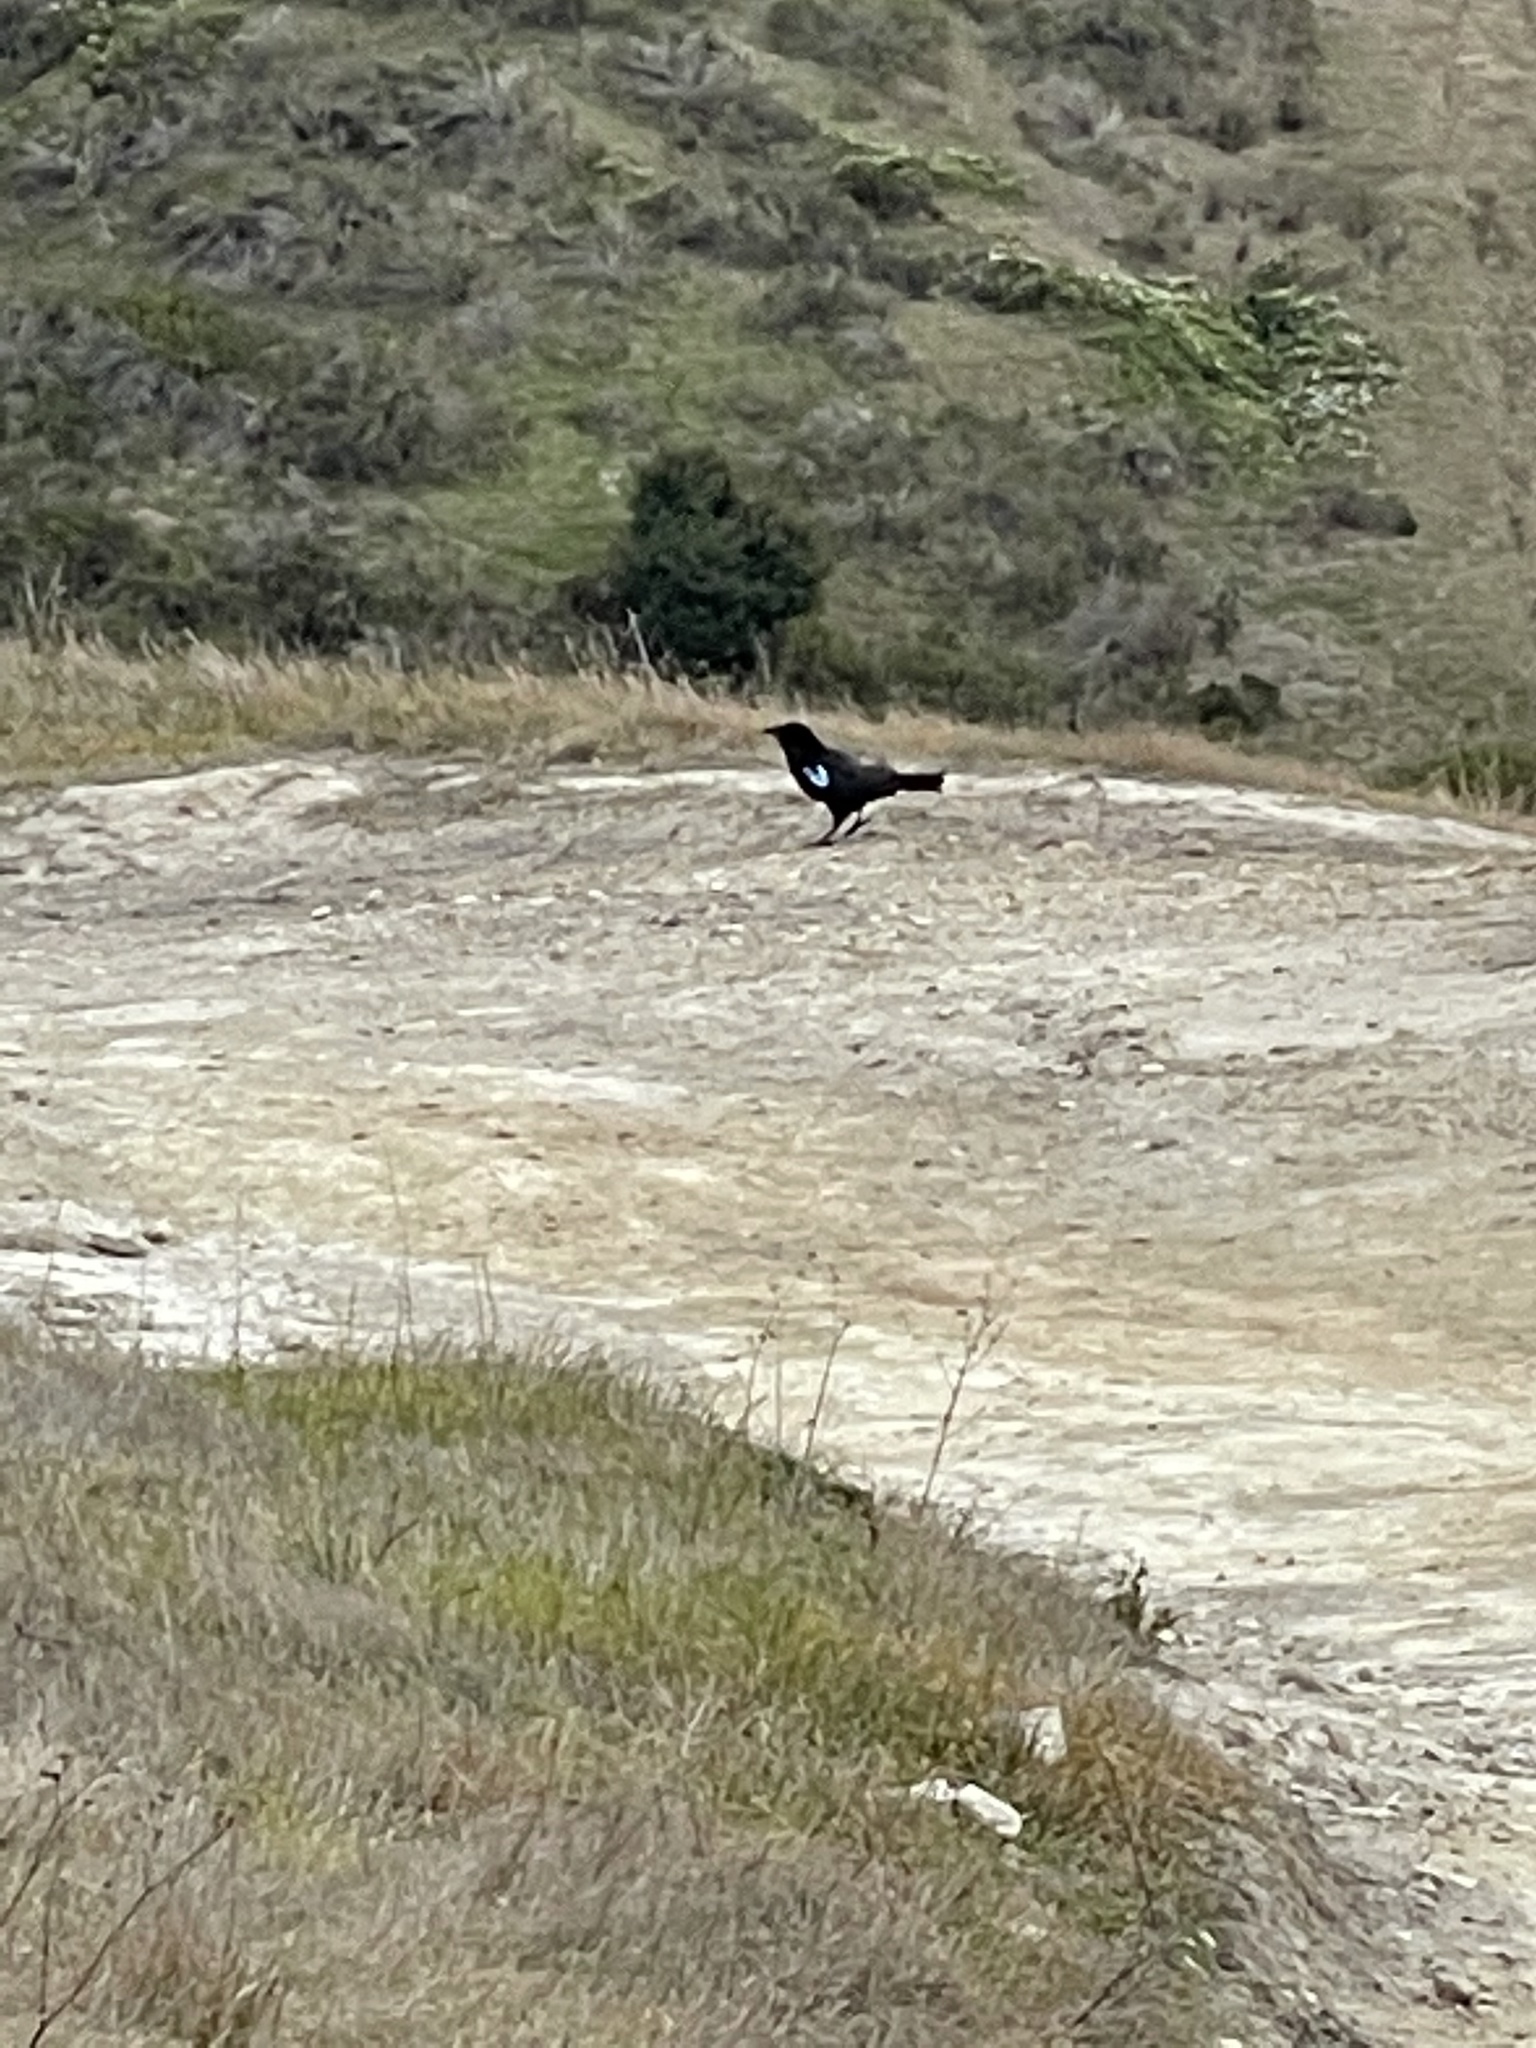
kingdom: Animalia
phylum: Chordata
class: Aves
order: Passeriformes
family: Corvidae
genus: Corvus
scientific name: Corvus corax
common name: Common raven
